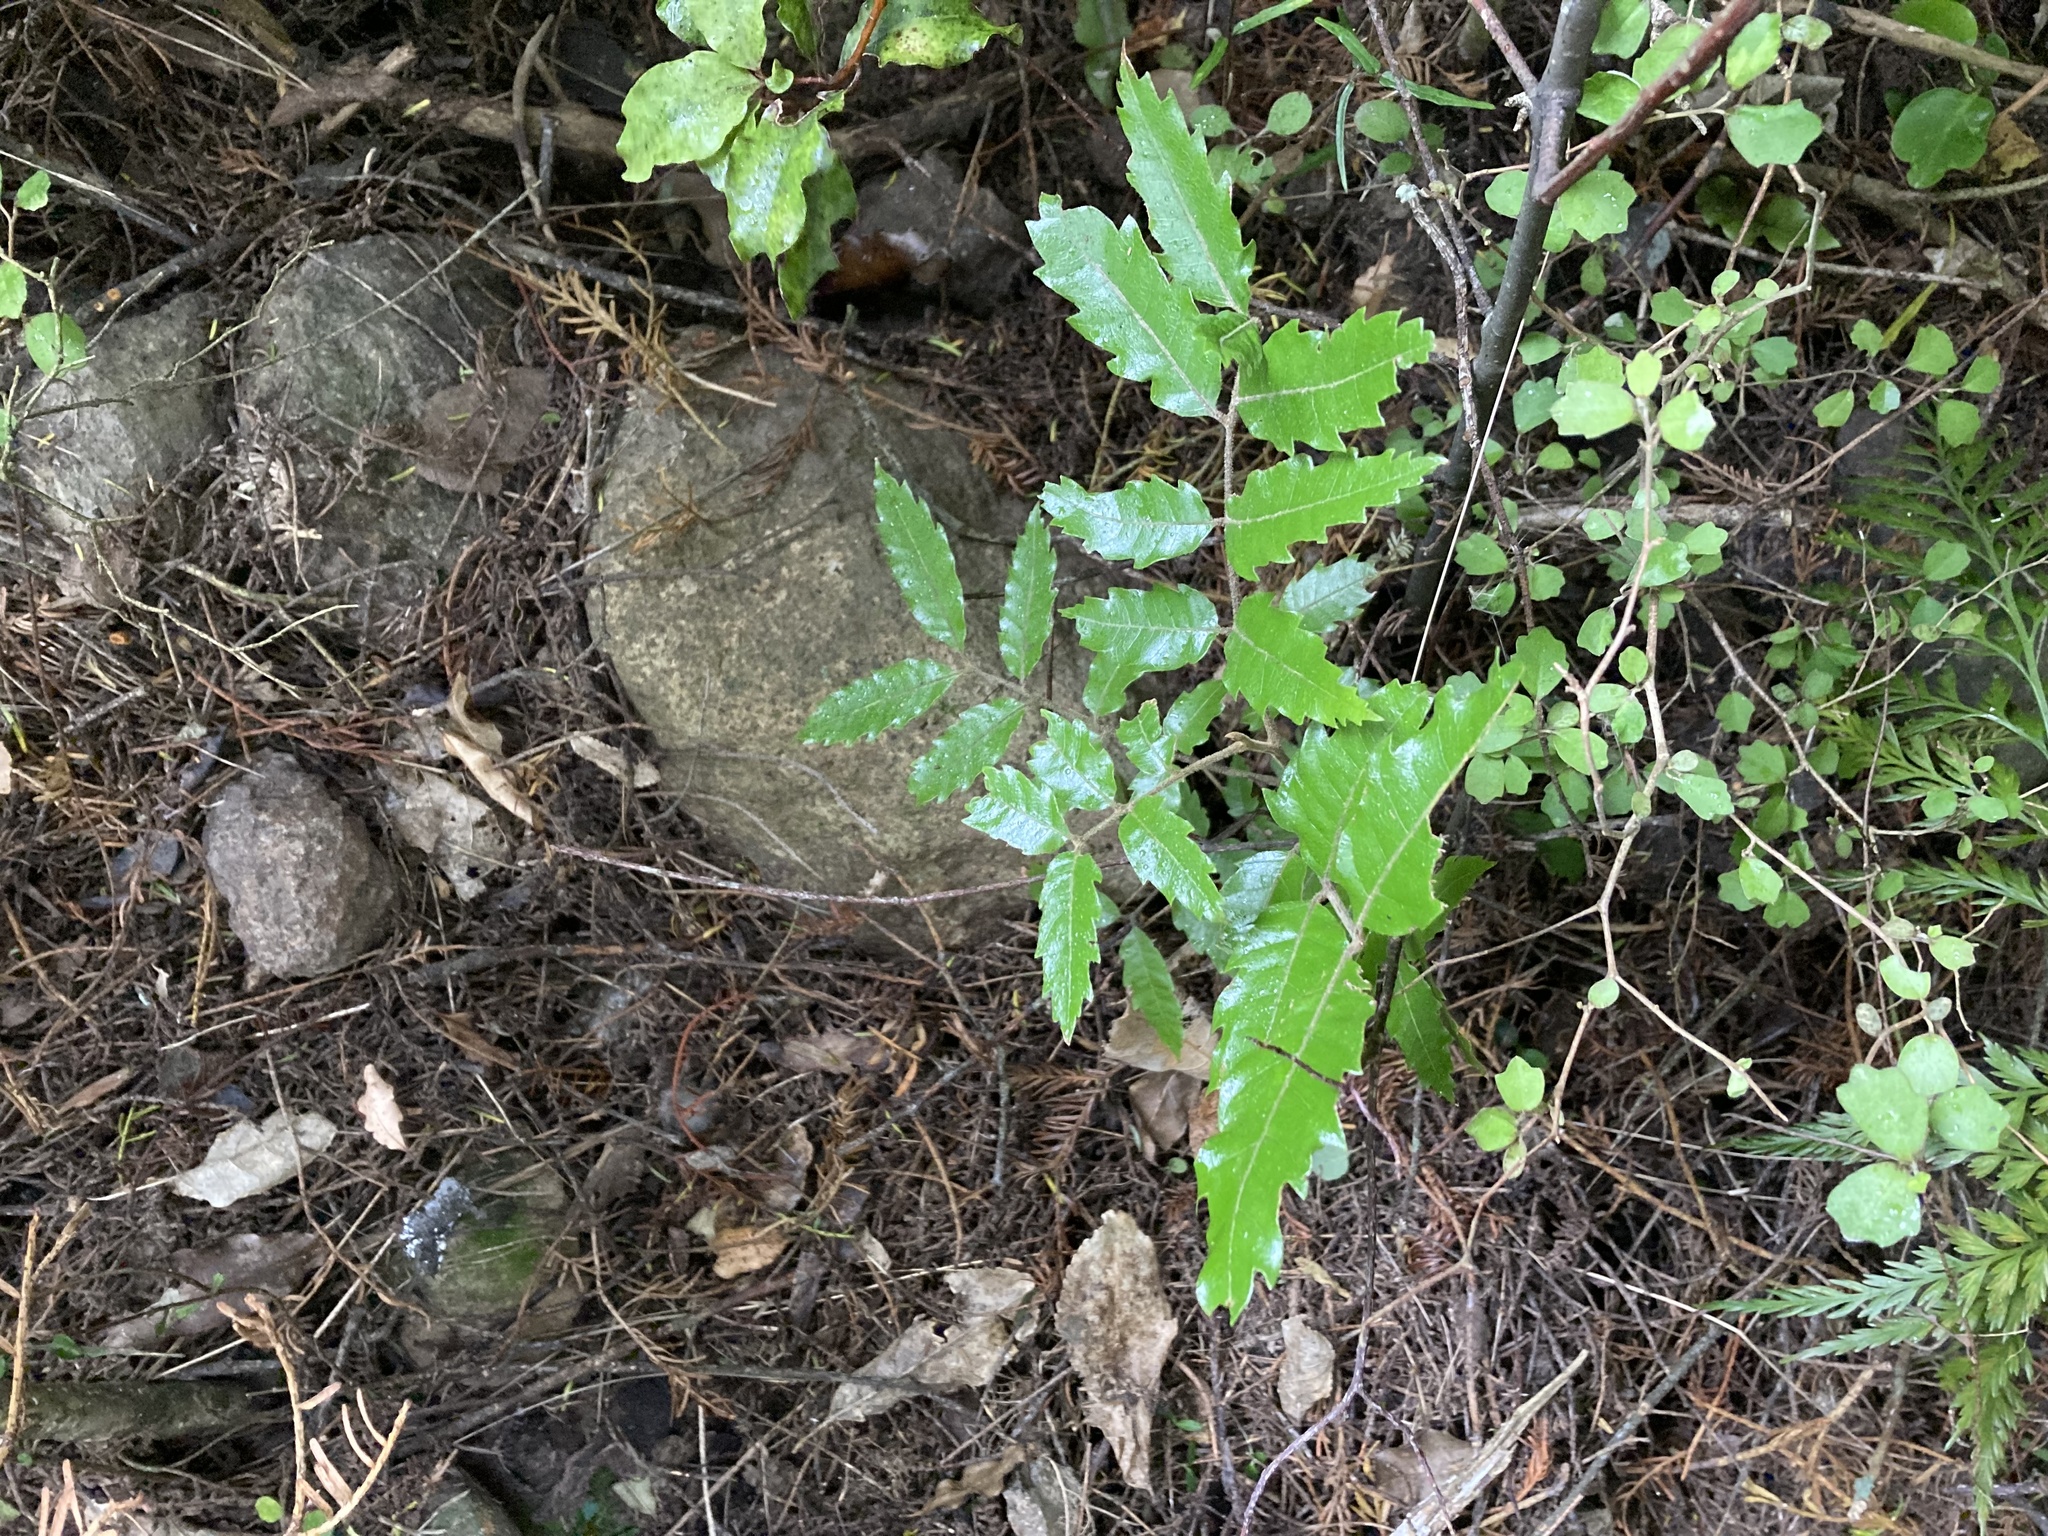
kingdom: Plantae
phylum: Tracheophyta
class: Magnoliopsida
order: Sapindales
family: Sapindaceae
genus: Alectryon
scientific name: Alectryon excelsus
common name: Three kings titoki
